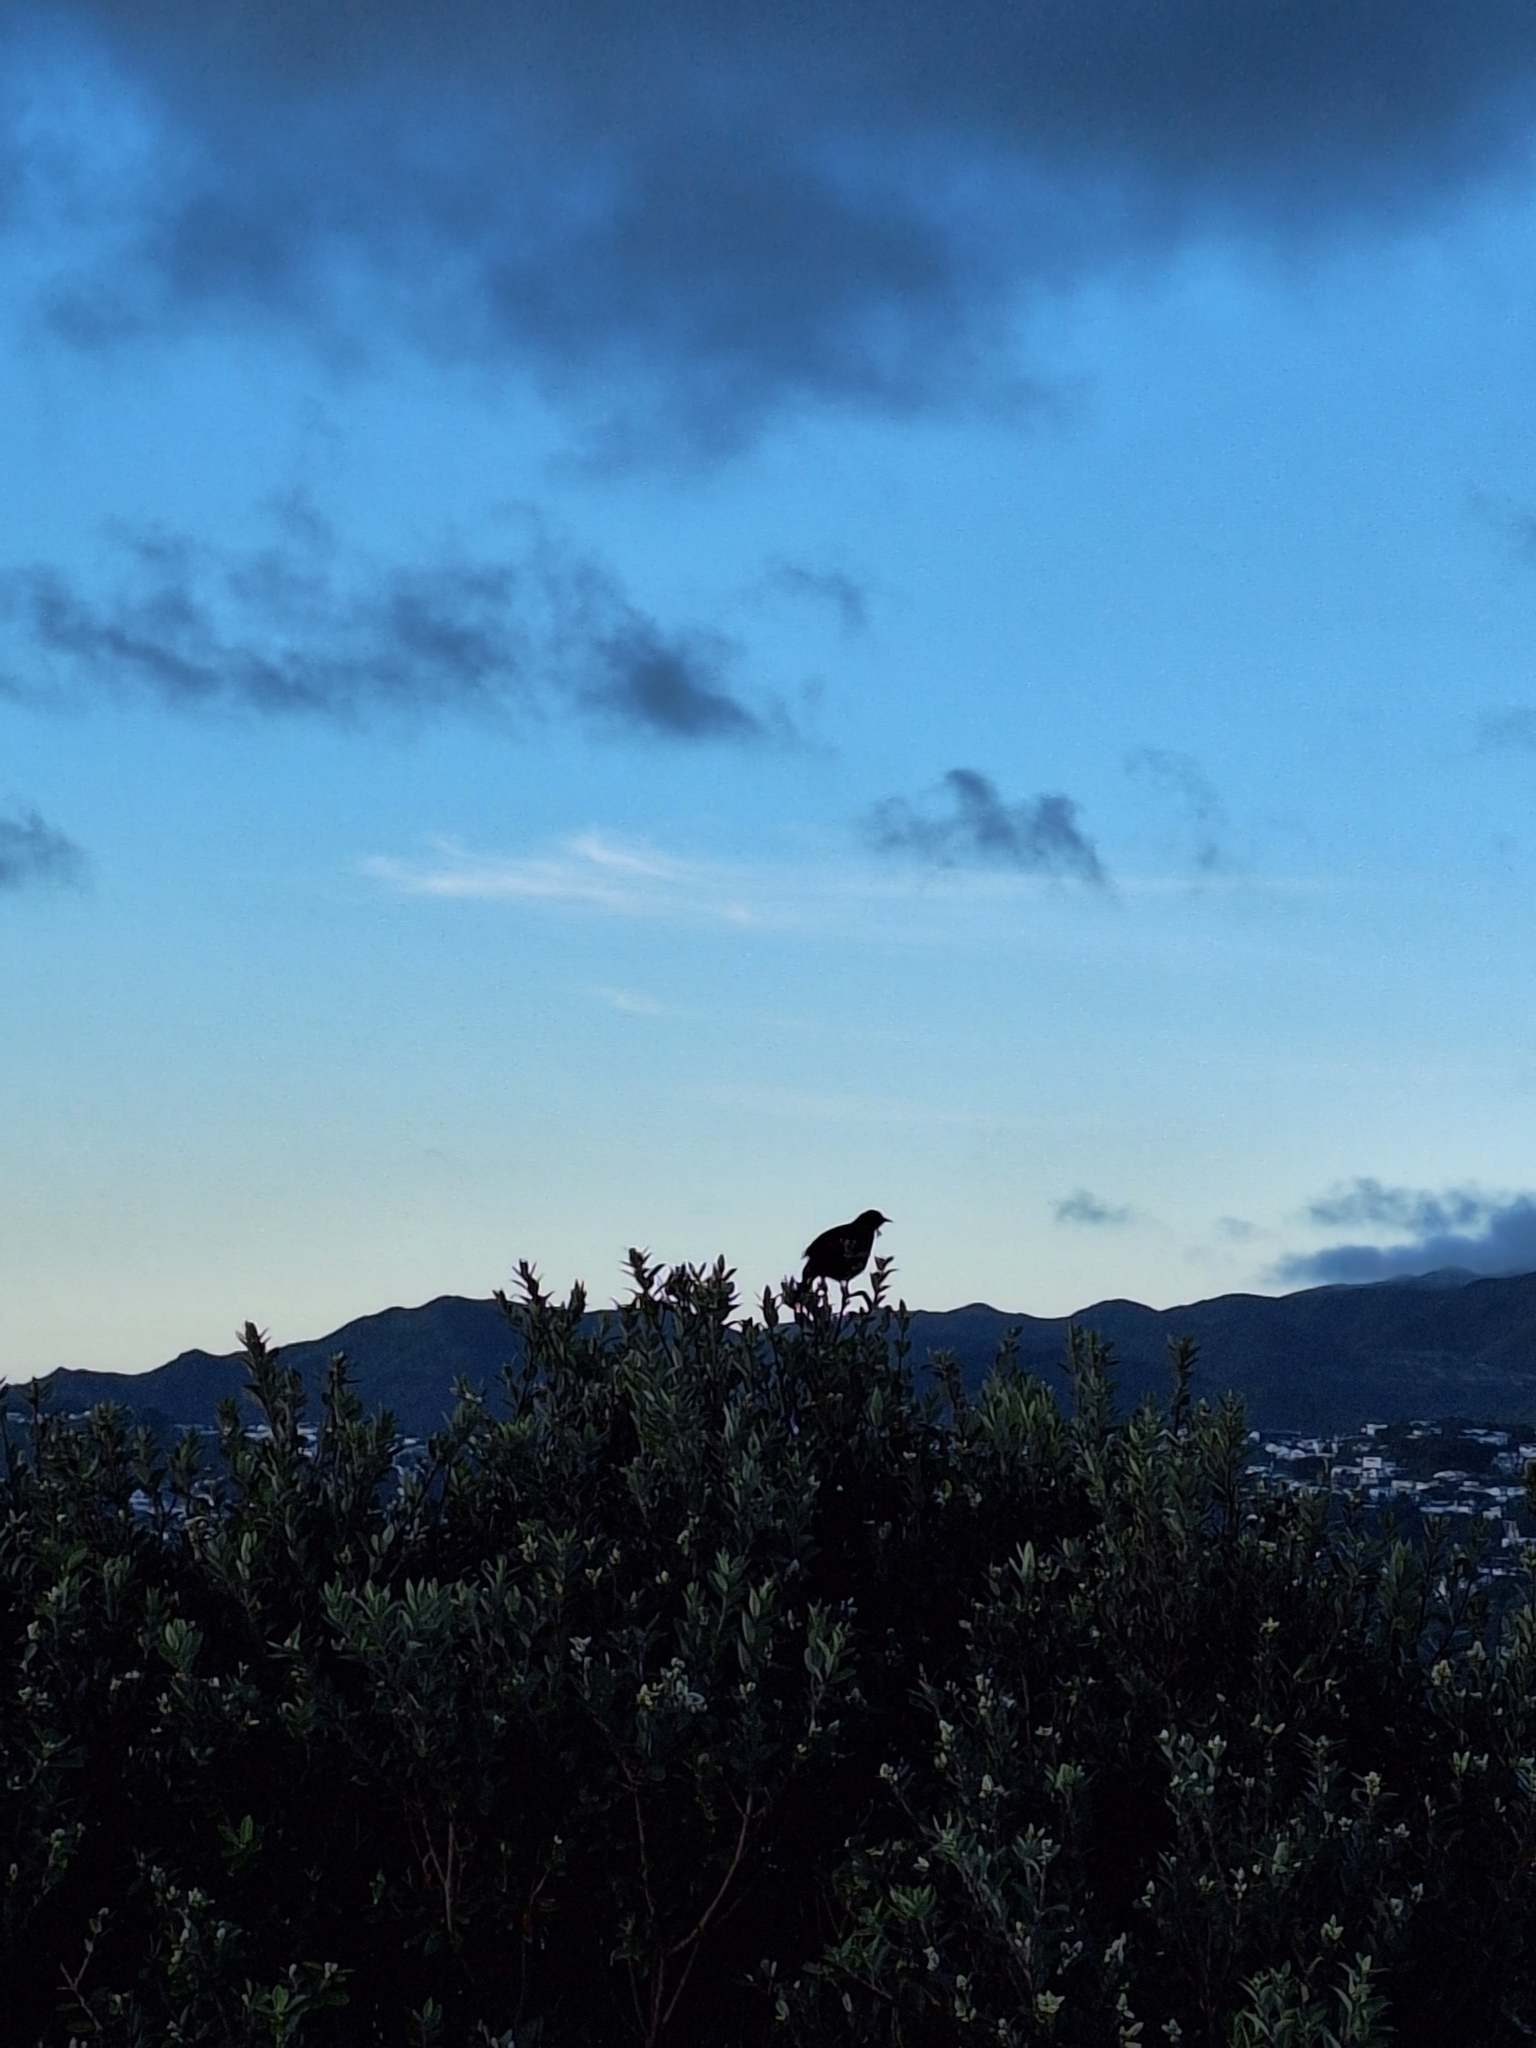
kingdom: Animalia
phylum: Chordata
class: Aves
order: Passeriformes
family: Meliphagidae
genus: Prosthemadera
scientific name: Prosthemadera novaeseelandiae
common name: Tui
